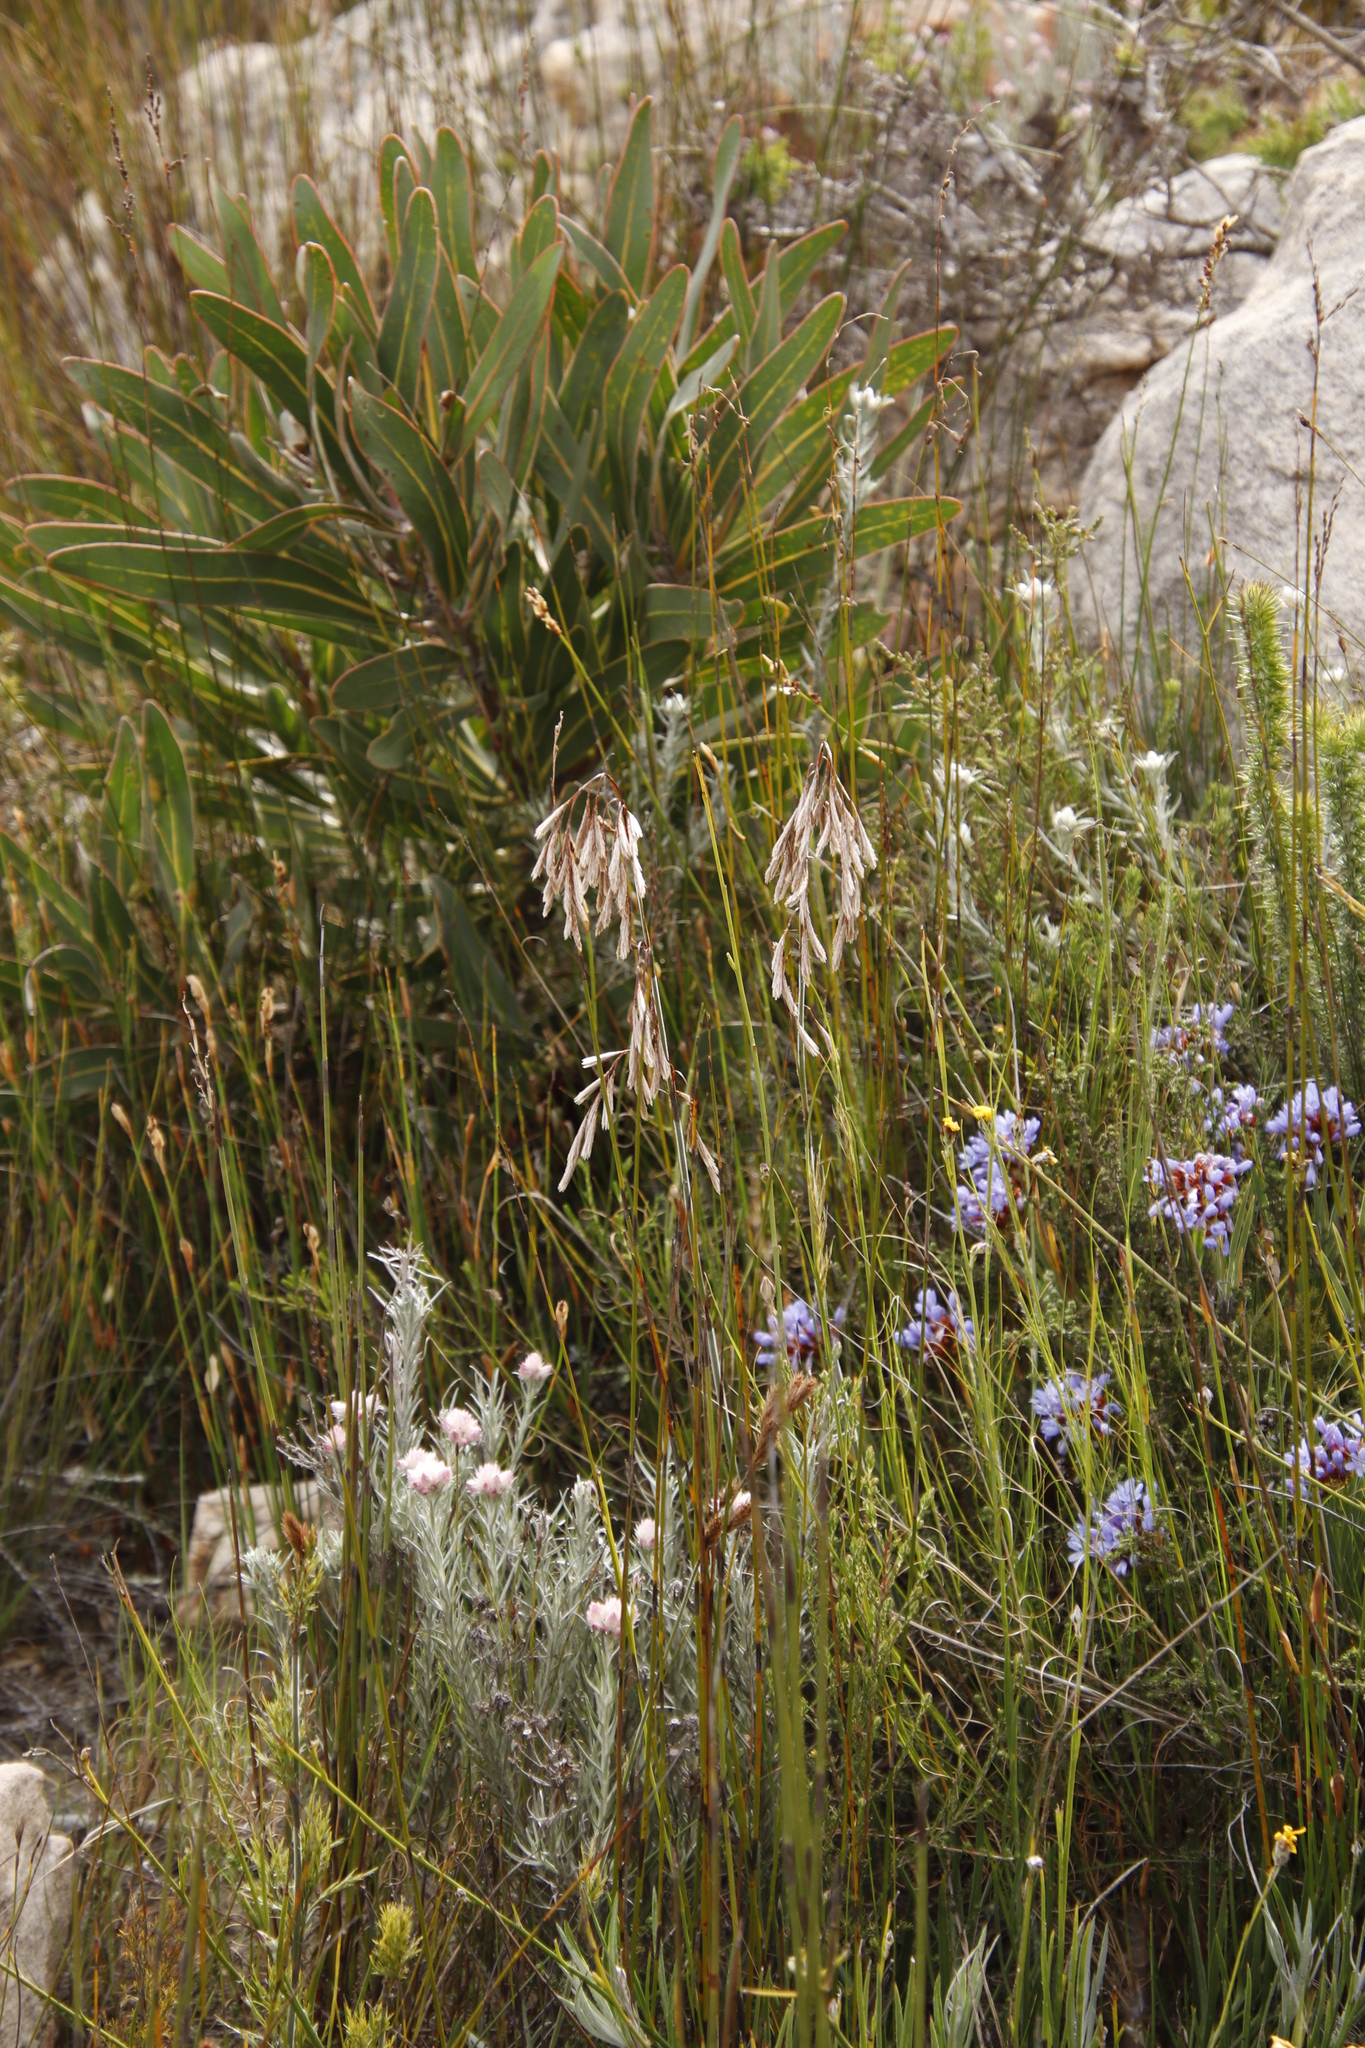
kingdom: Plantae
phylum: Tracheophyta
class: Liliopsida
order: Poales
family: Restionaceae
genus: Thamnochortus
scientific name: Thamnochortus rigidus
